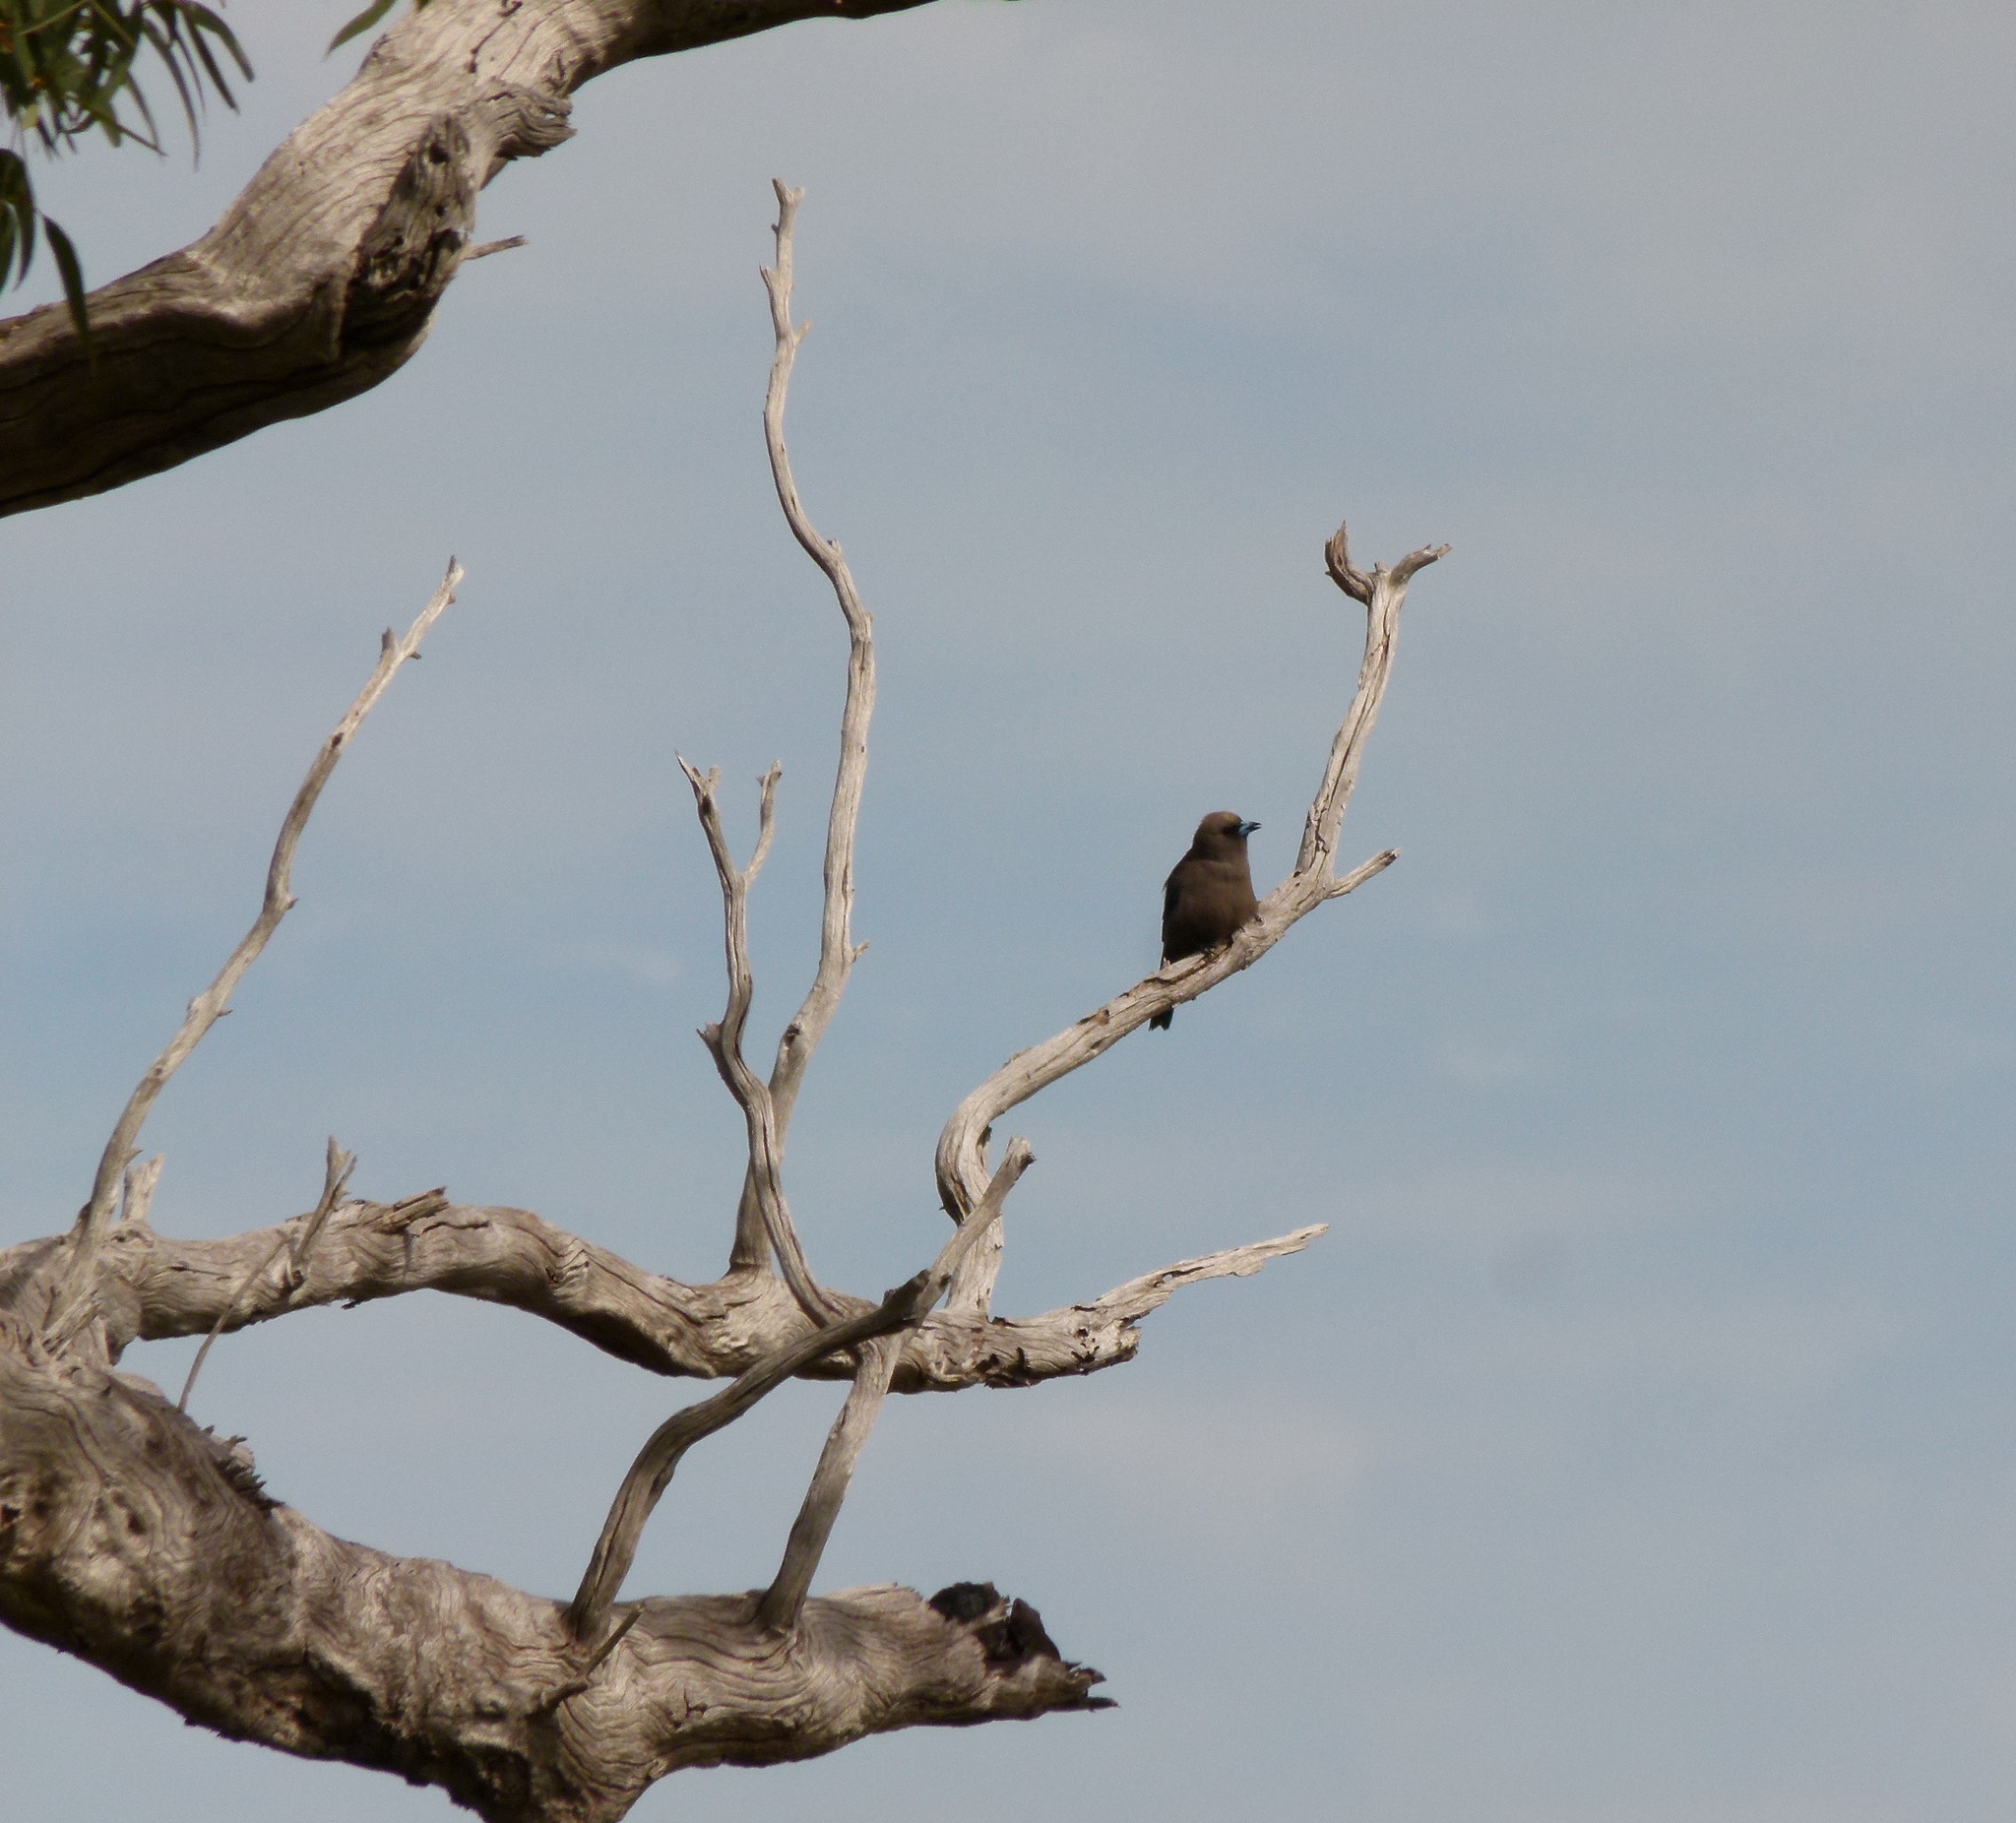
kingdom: Animalia
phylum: Chordata
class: Aves
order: Passeriformes
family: Artamidae
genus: Artamus
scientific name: Artamus cyanopterus
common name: Dusky woodswallow
